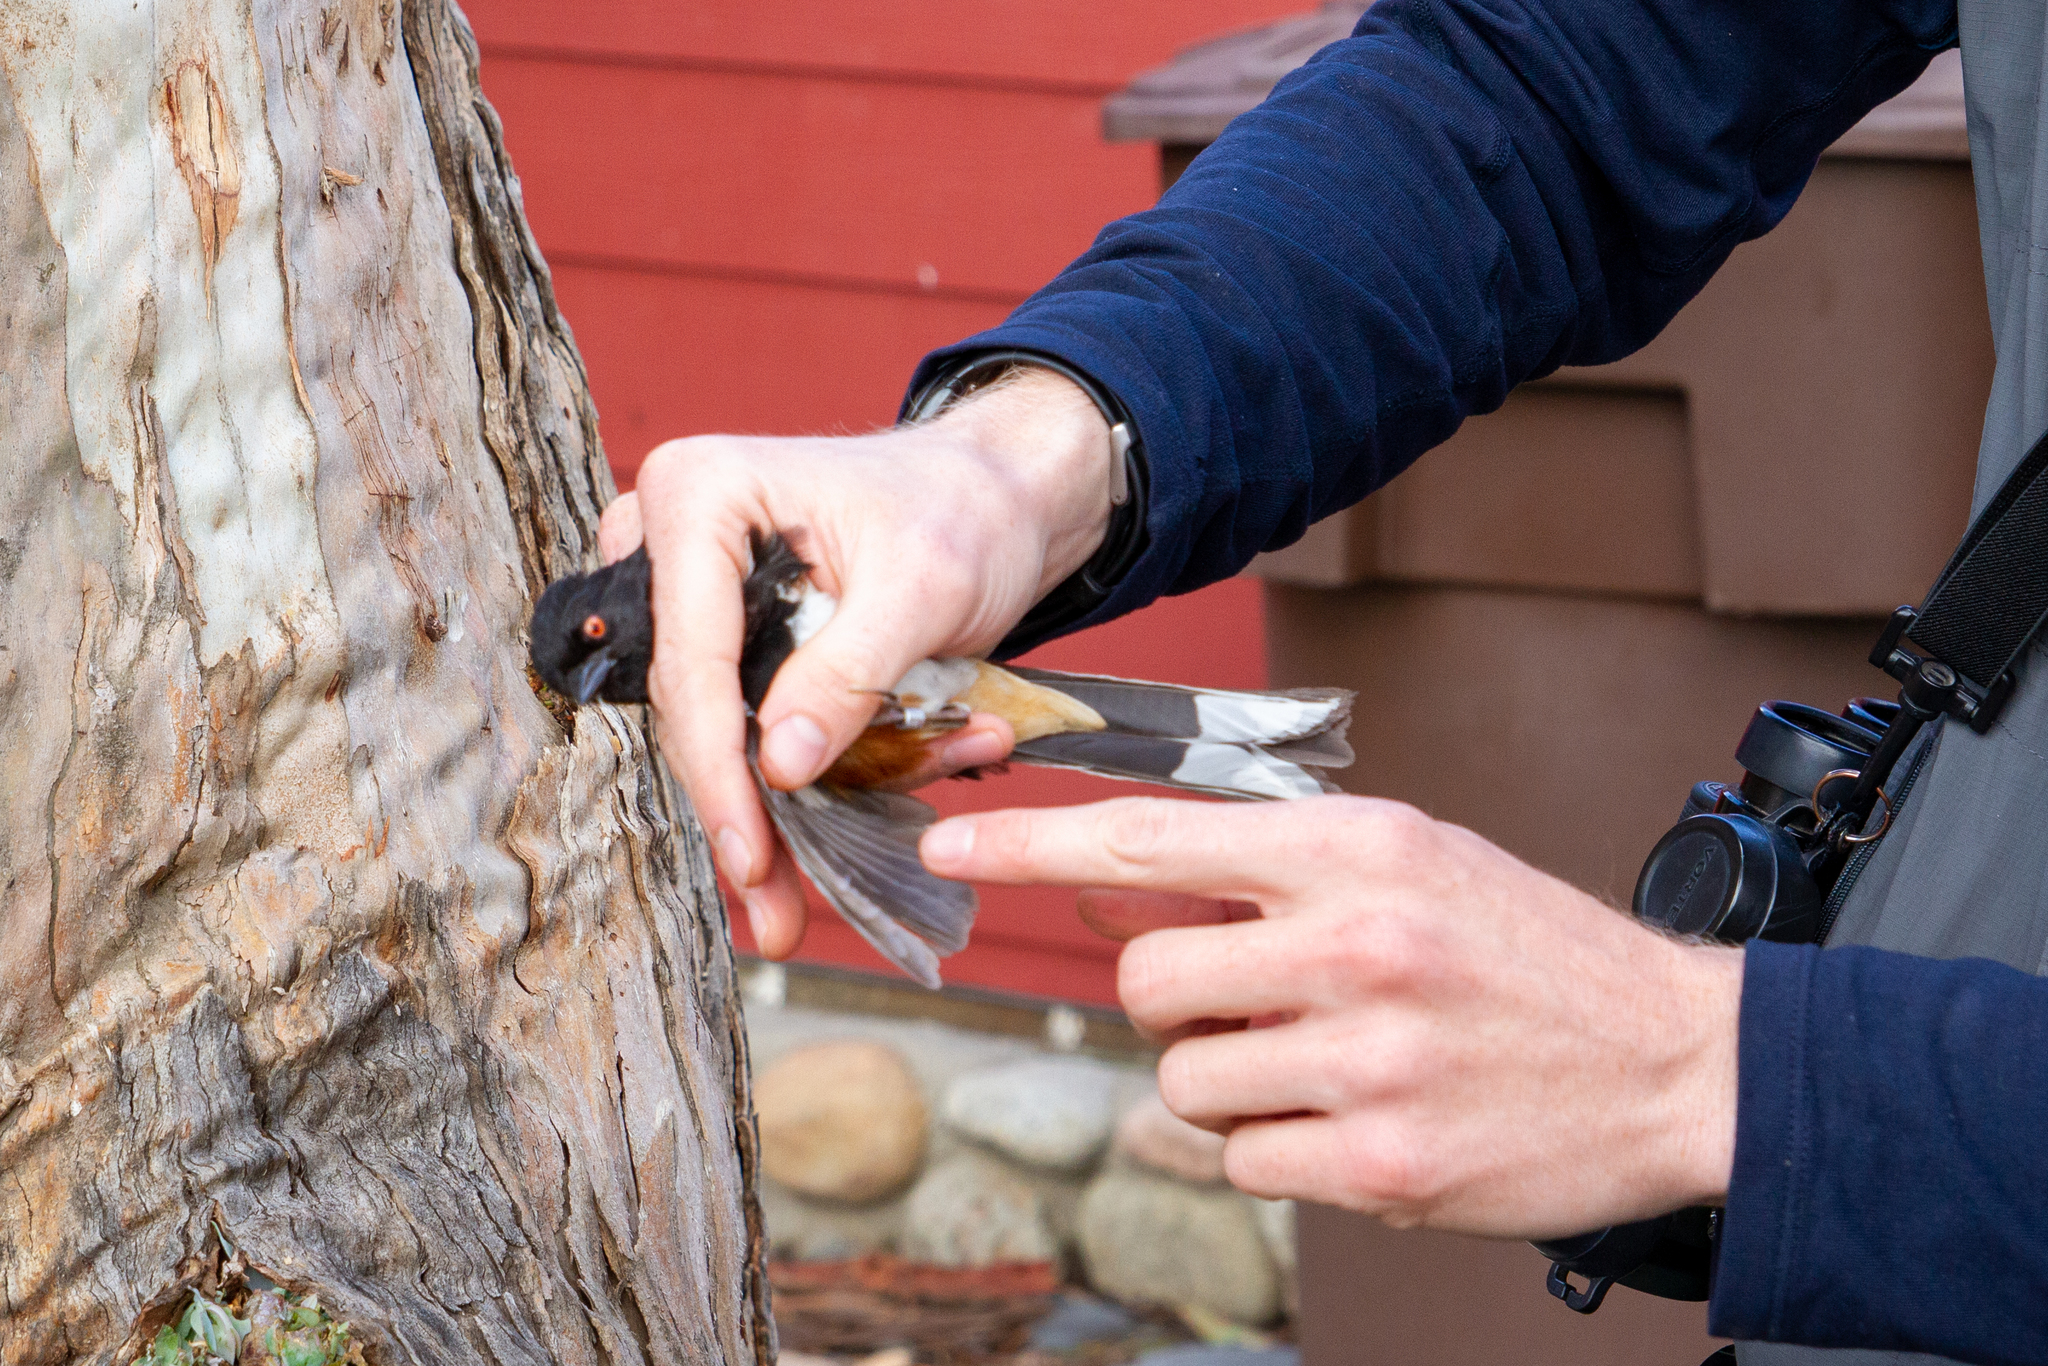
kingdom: Animalia
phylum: Chordata
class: Aves
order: Passeriformes
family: Passerellidae
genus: Pipilo
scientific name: Pipilo maculatus
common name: Spotted towhee
